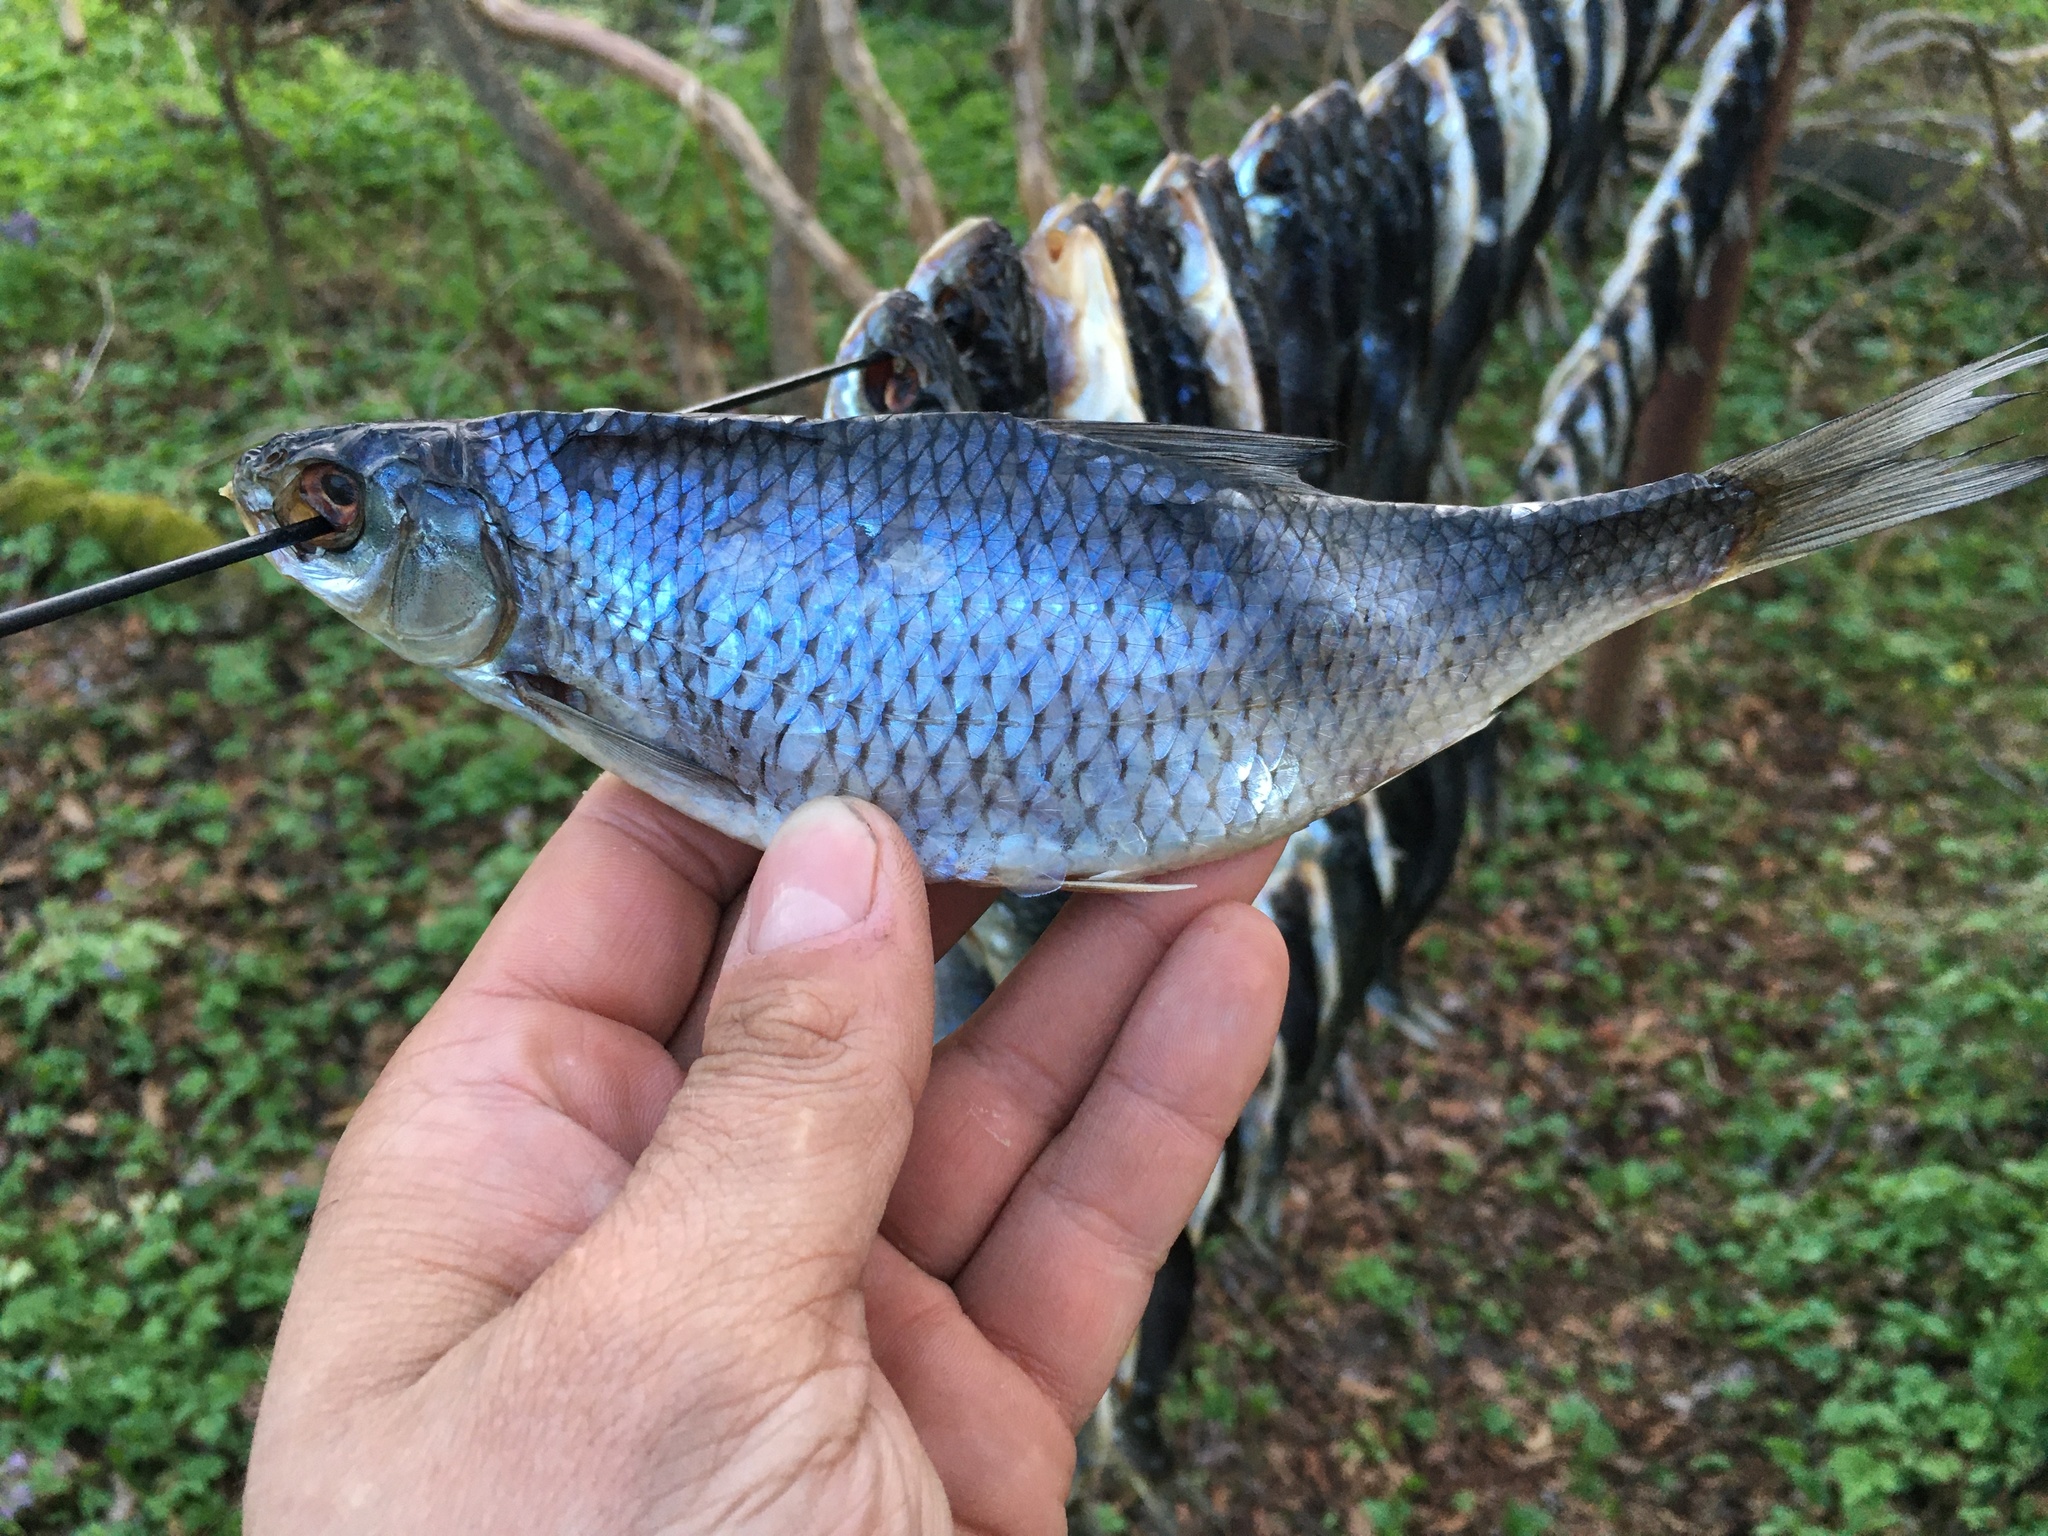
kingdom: Animalia
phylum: Chordata
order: Cypriniformes
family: Cyprinidae
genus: Rutilus
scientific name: Rutilus rutilus
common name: Roach
